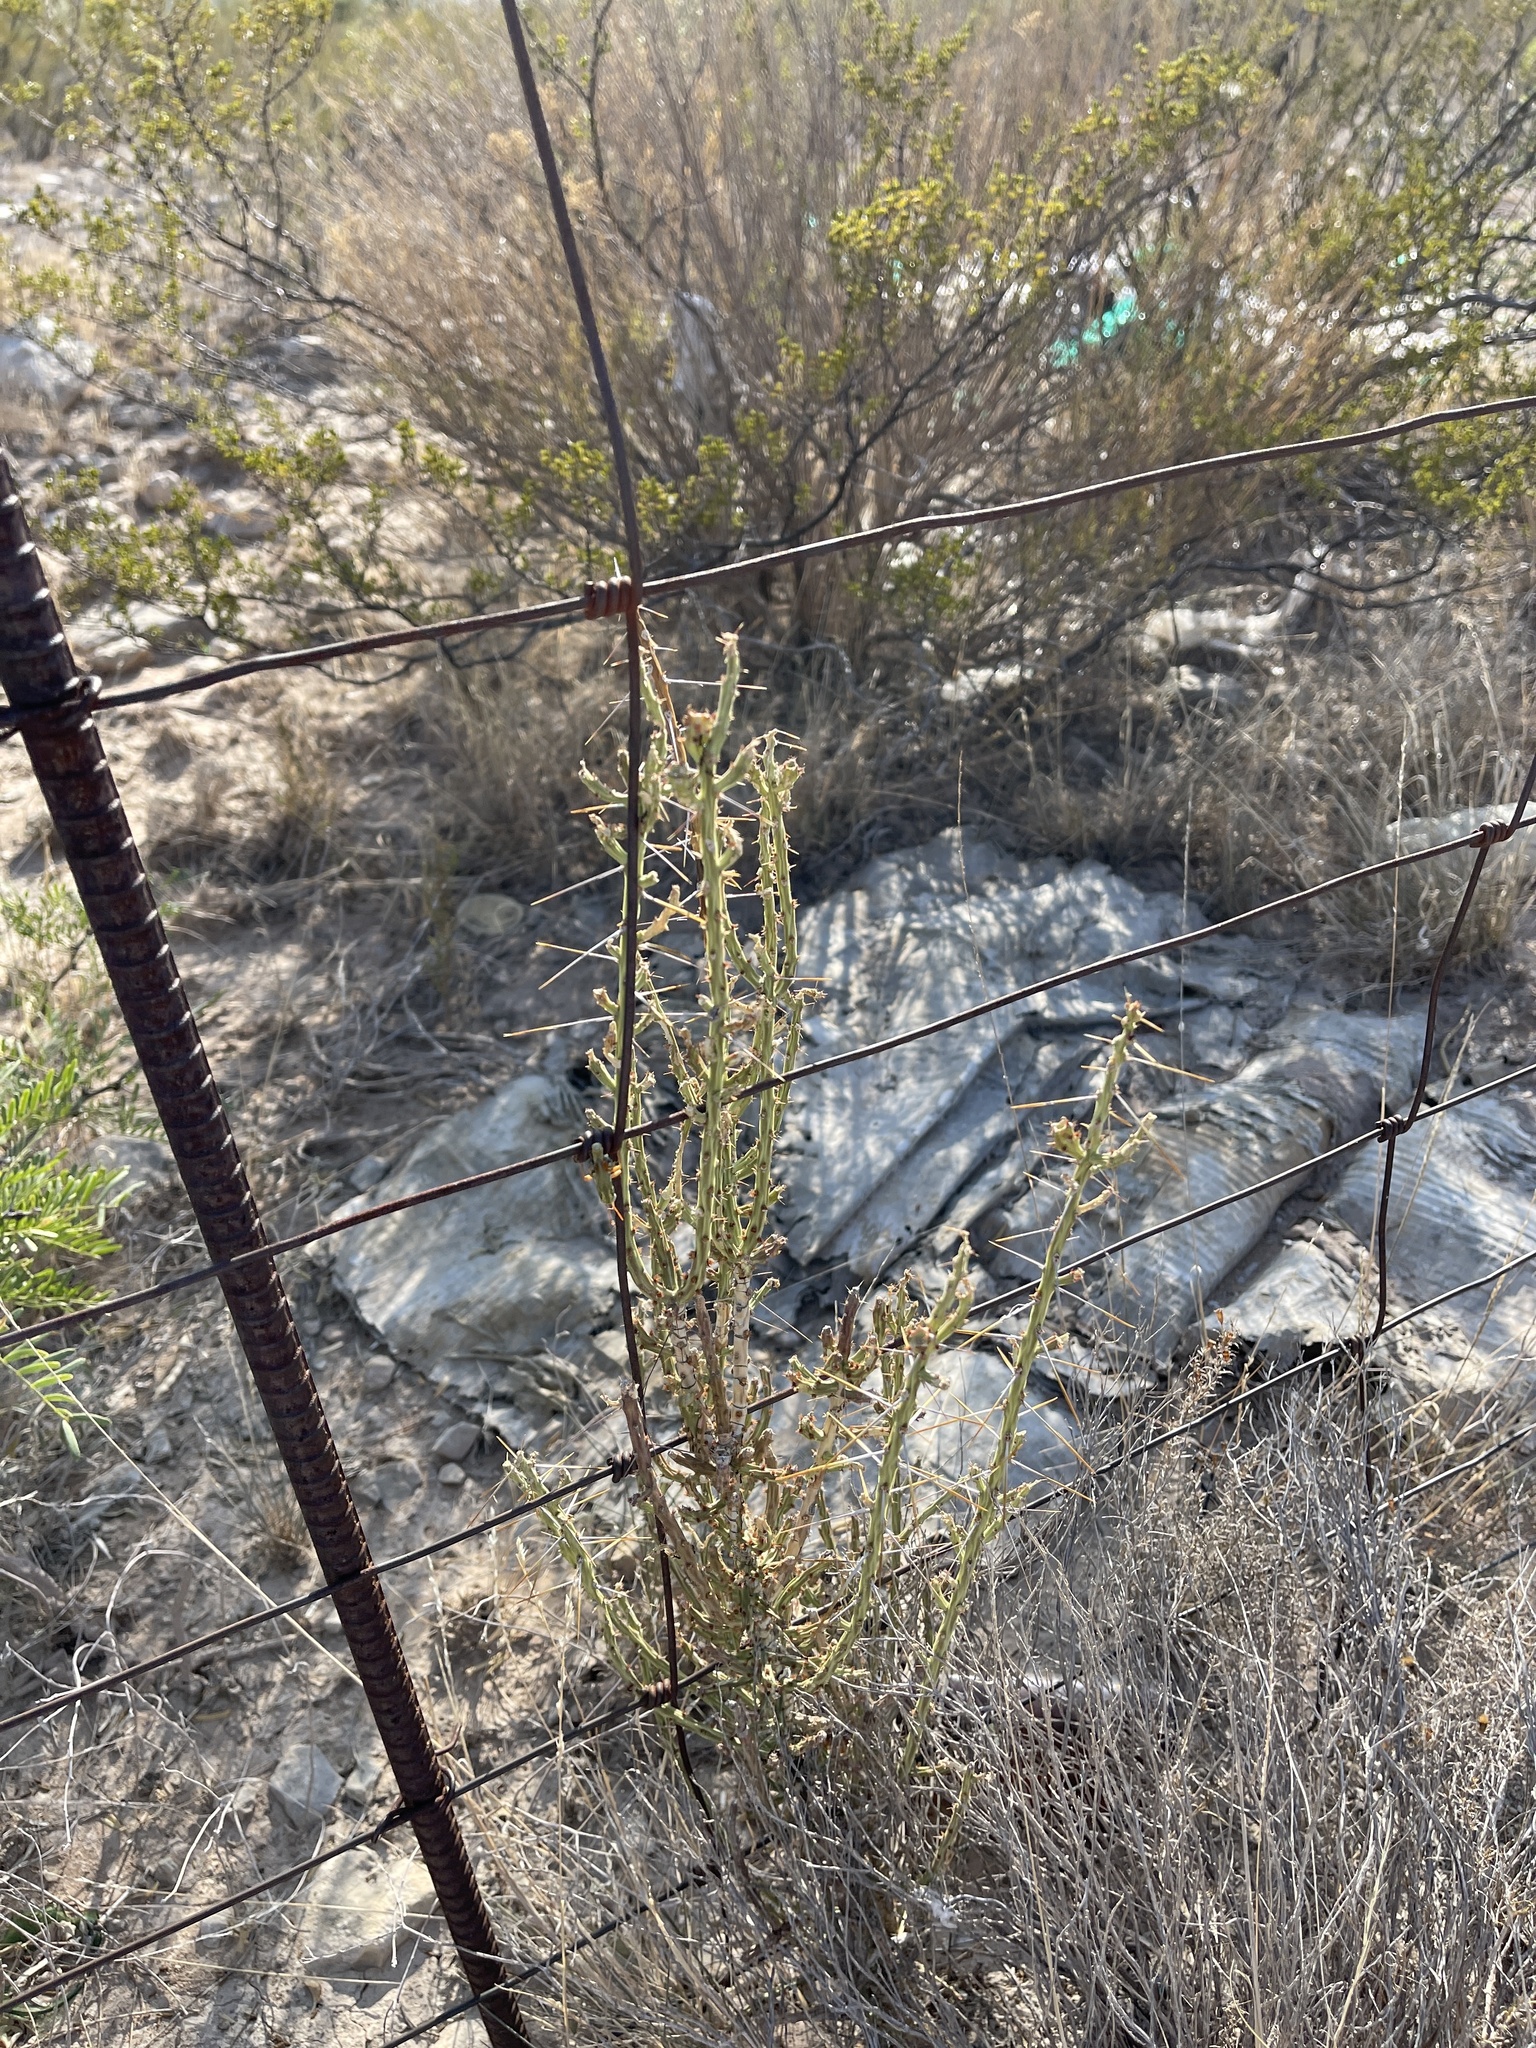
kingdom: Plantae
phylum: Tracheophyta
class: Magnoliopsida
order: Caryophyllales
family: Cactaceae
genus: Cylindropuntia
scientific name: Cylindropuntia leptocaulis
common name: Christmas cactus
